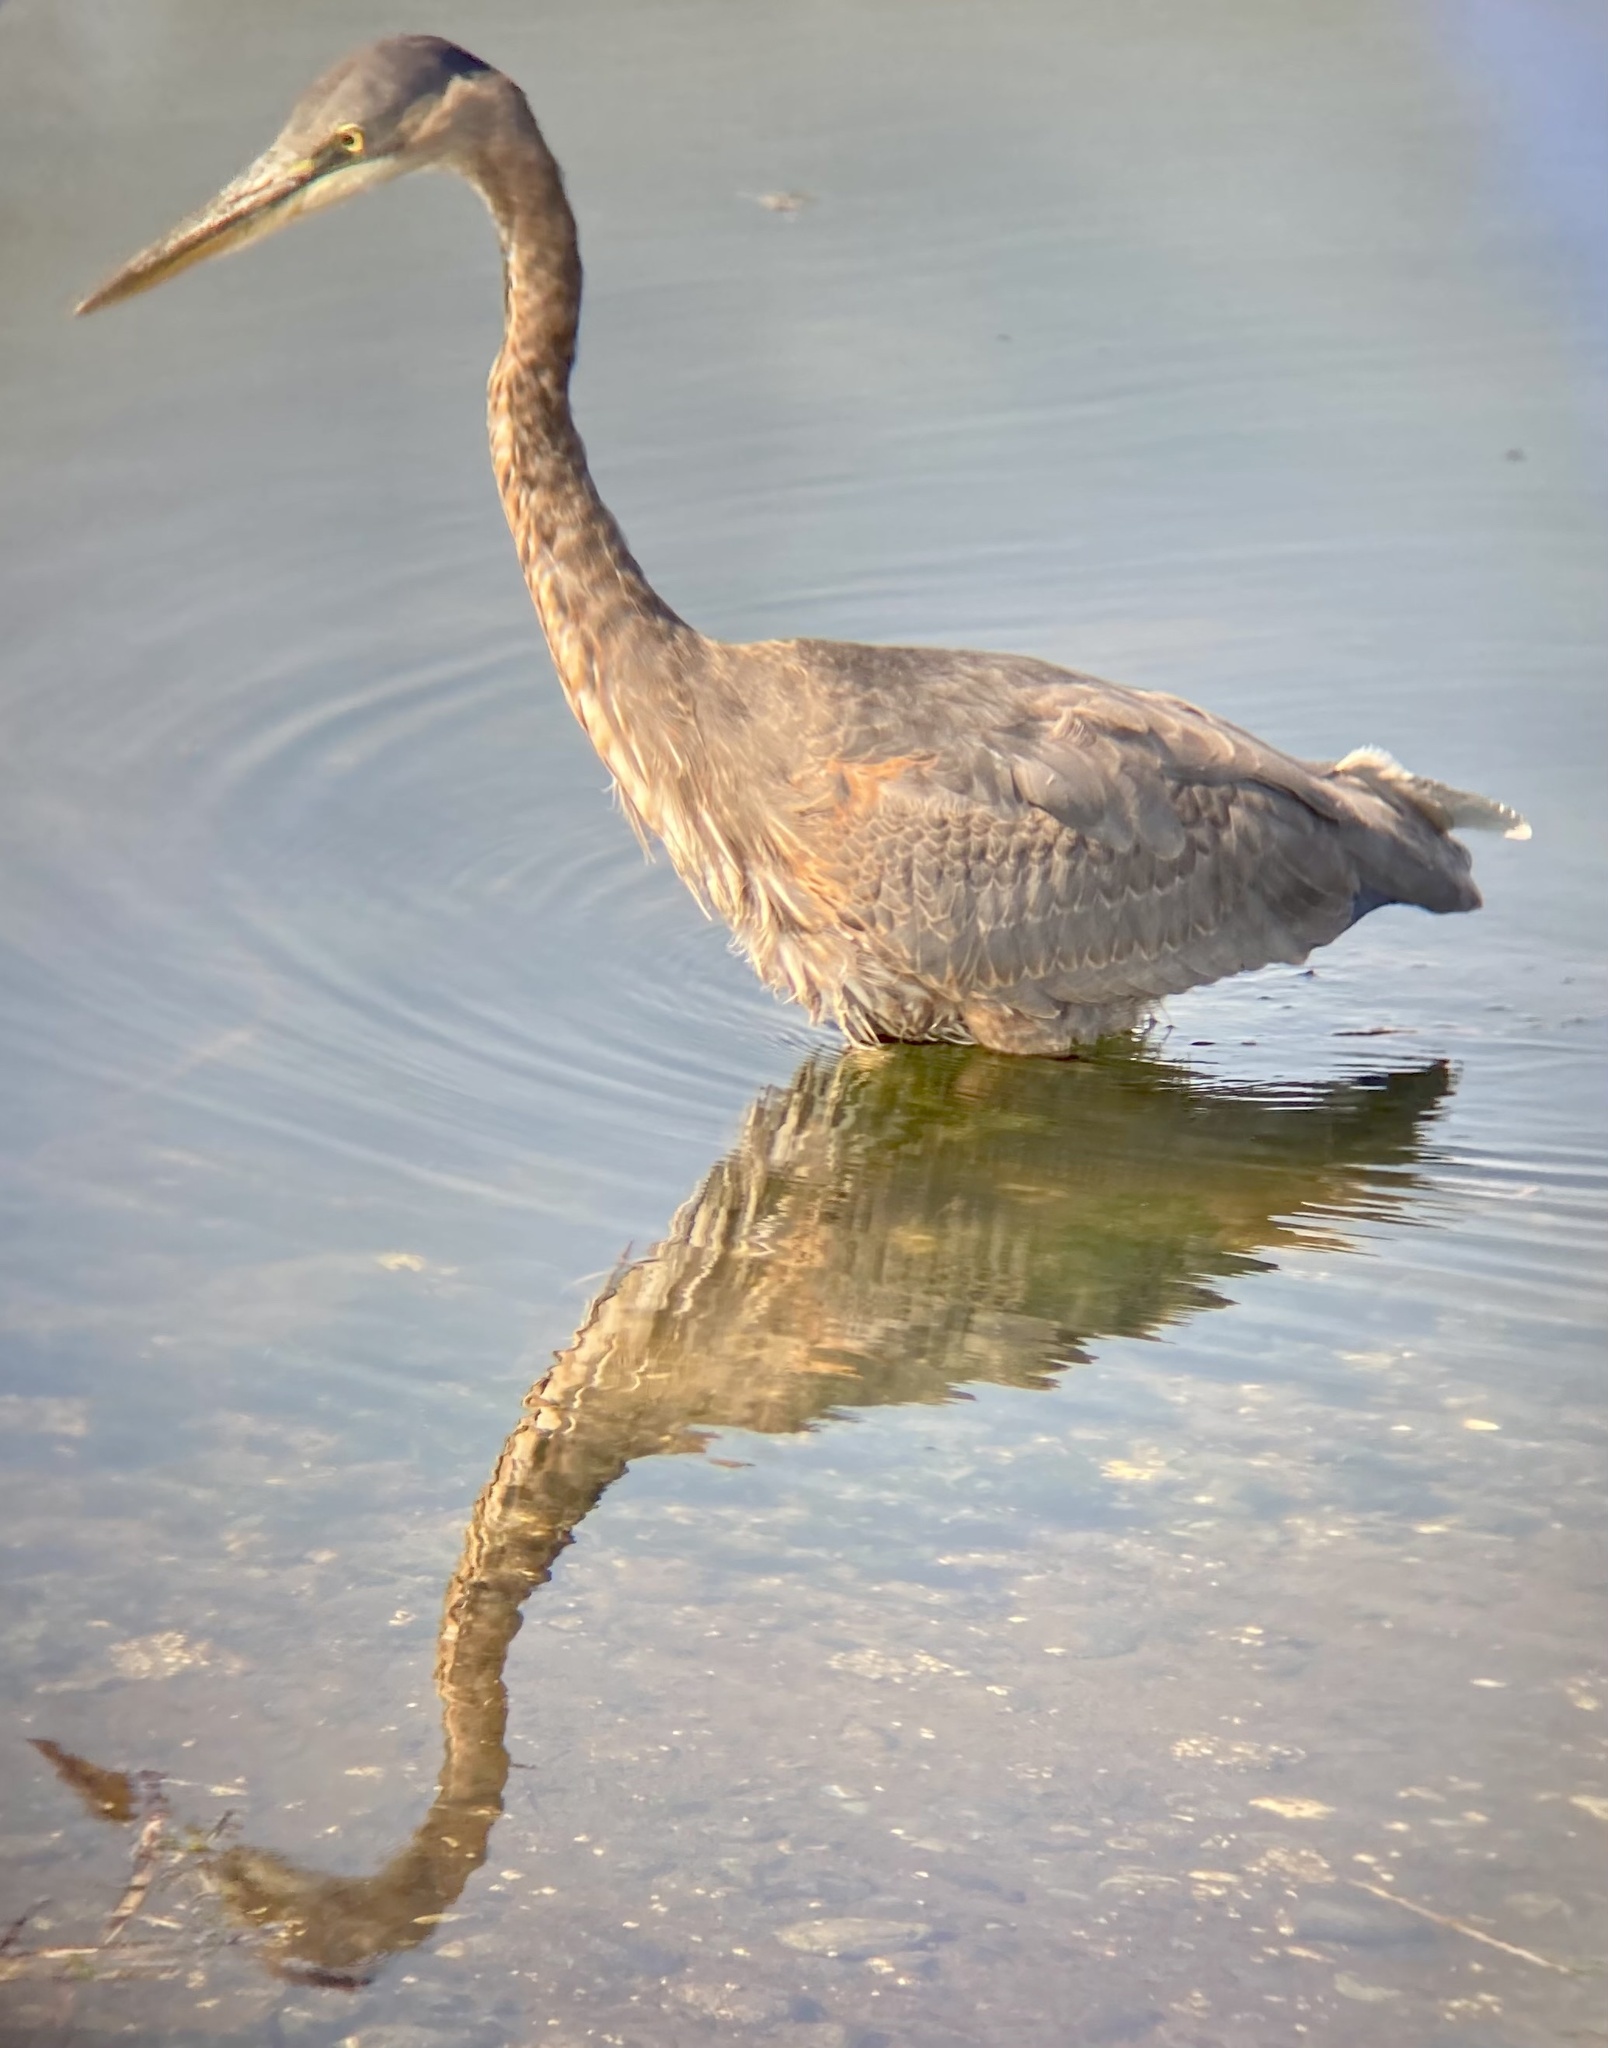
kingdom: Animalia
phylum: Chordata
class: Aves
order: Pelecaniformes
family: Ardeidae
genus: Ardea
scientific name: Ardea herodias
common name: Great blue heron
